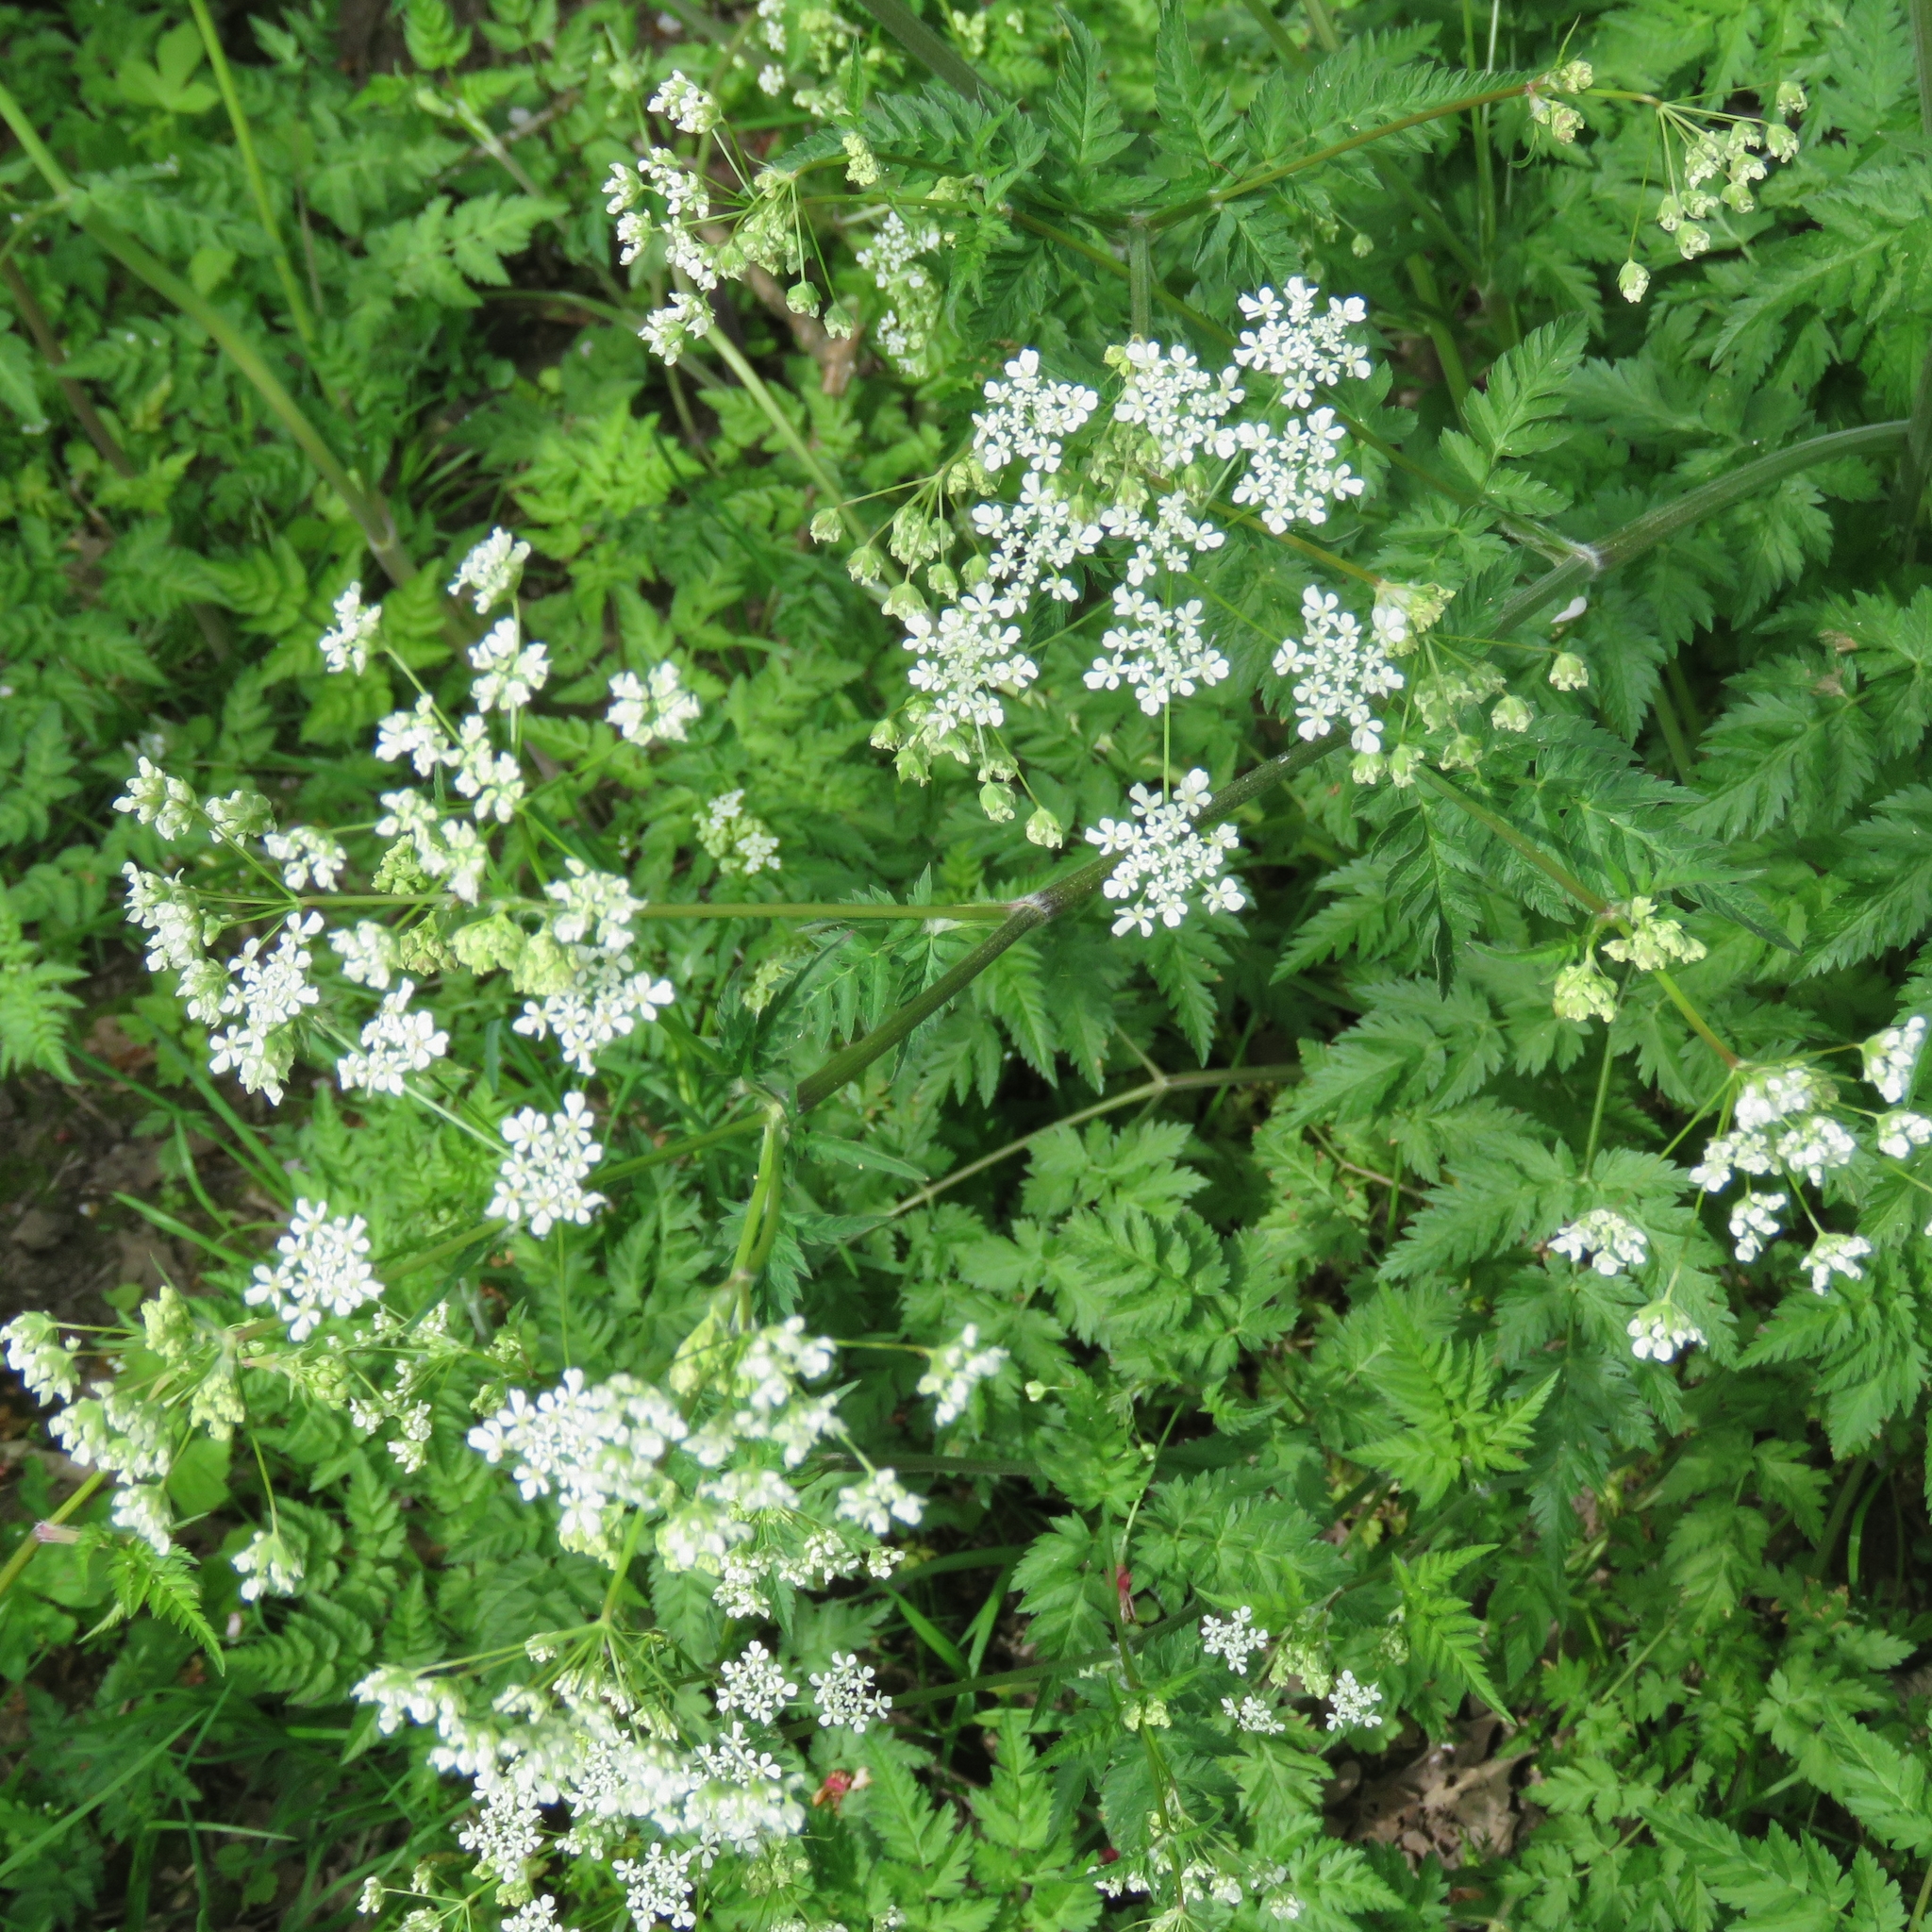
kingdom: Plantae
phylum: Tracheophyta
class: Magnoliopsida
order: Apiales
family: Apiaceae
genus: Anthriscus
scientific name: Anthriscus sylvestris
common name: Cow parsley
